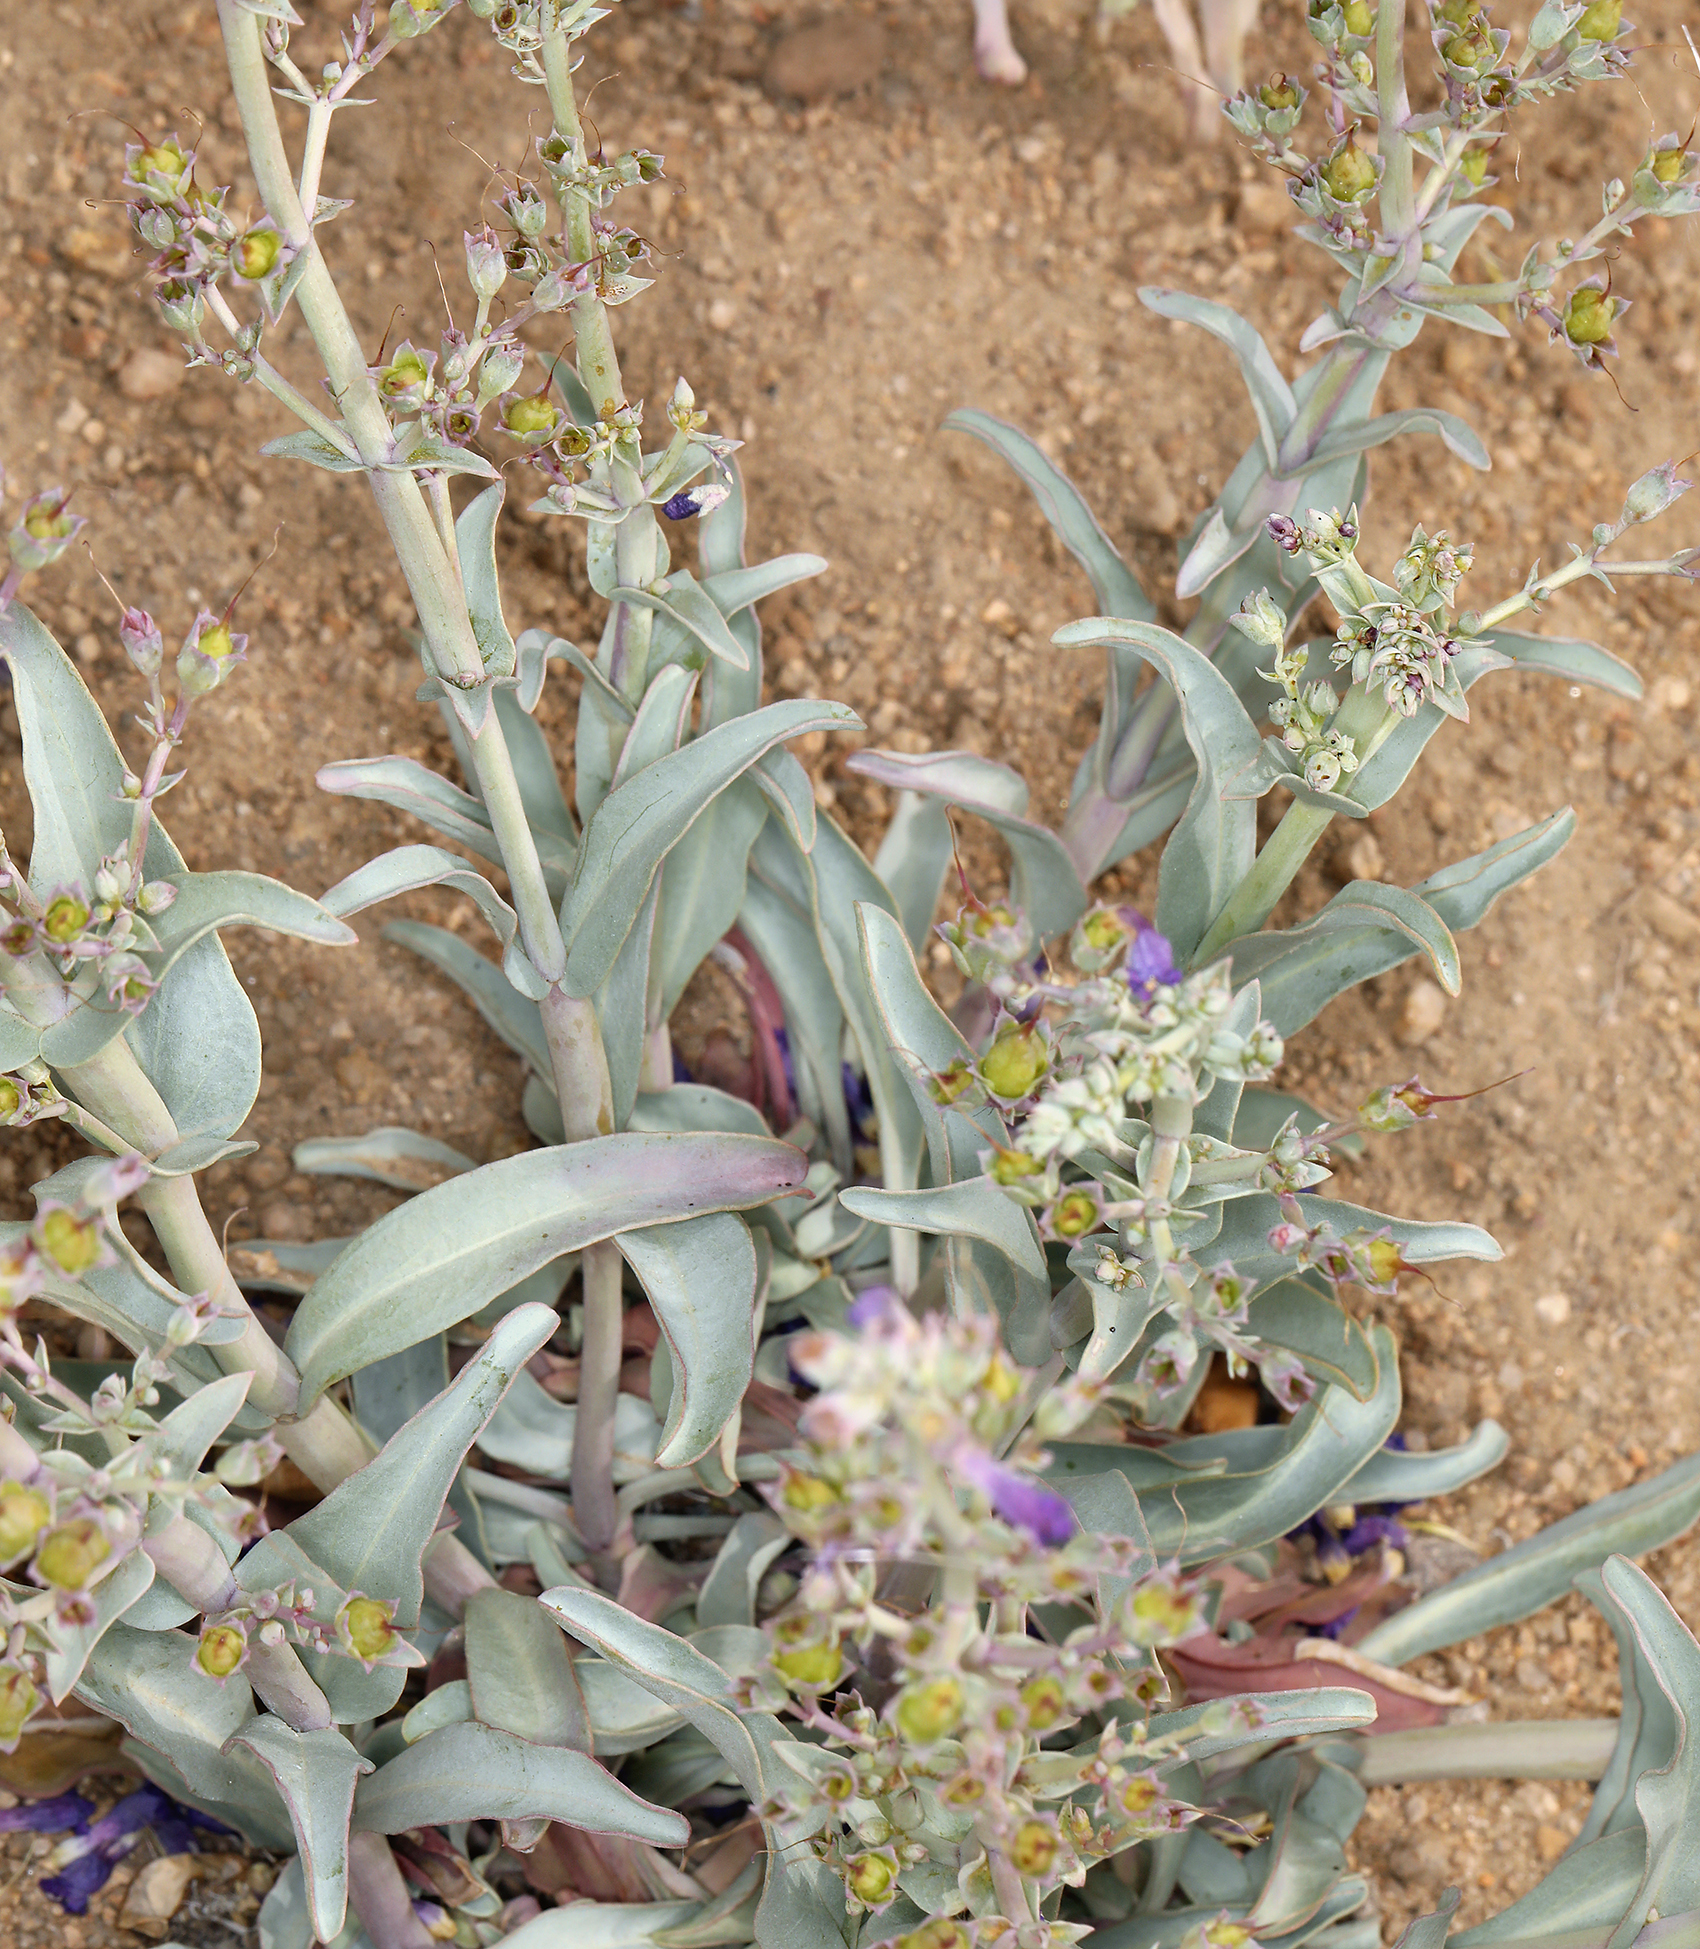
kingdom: Plantae
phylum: Tracheophyta
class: Magnoliopsida
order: Lamiales
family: Plantaginaceae
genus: Penstemon
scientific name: Penstemon patens
